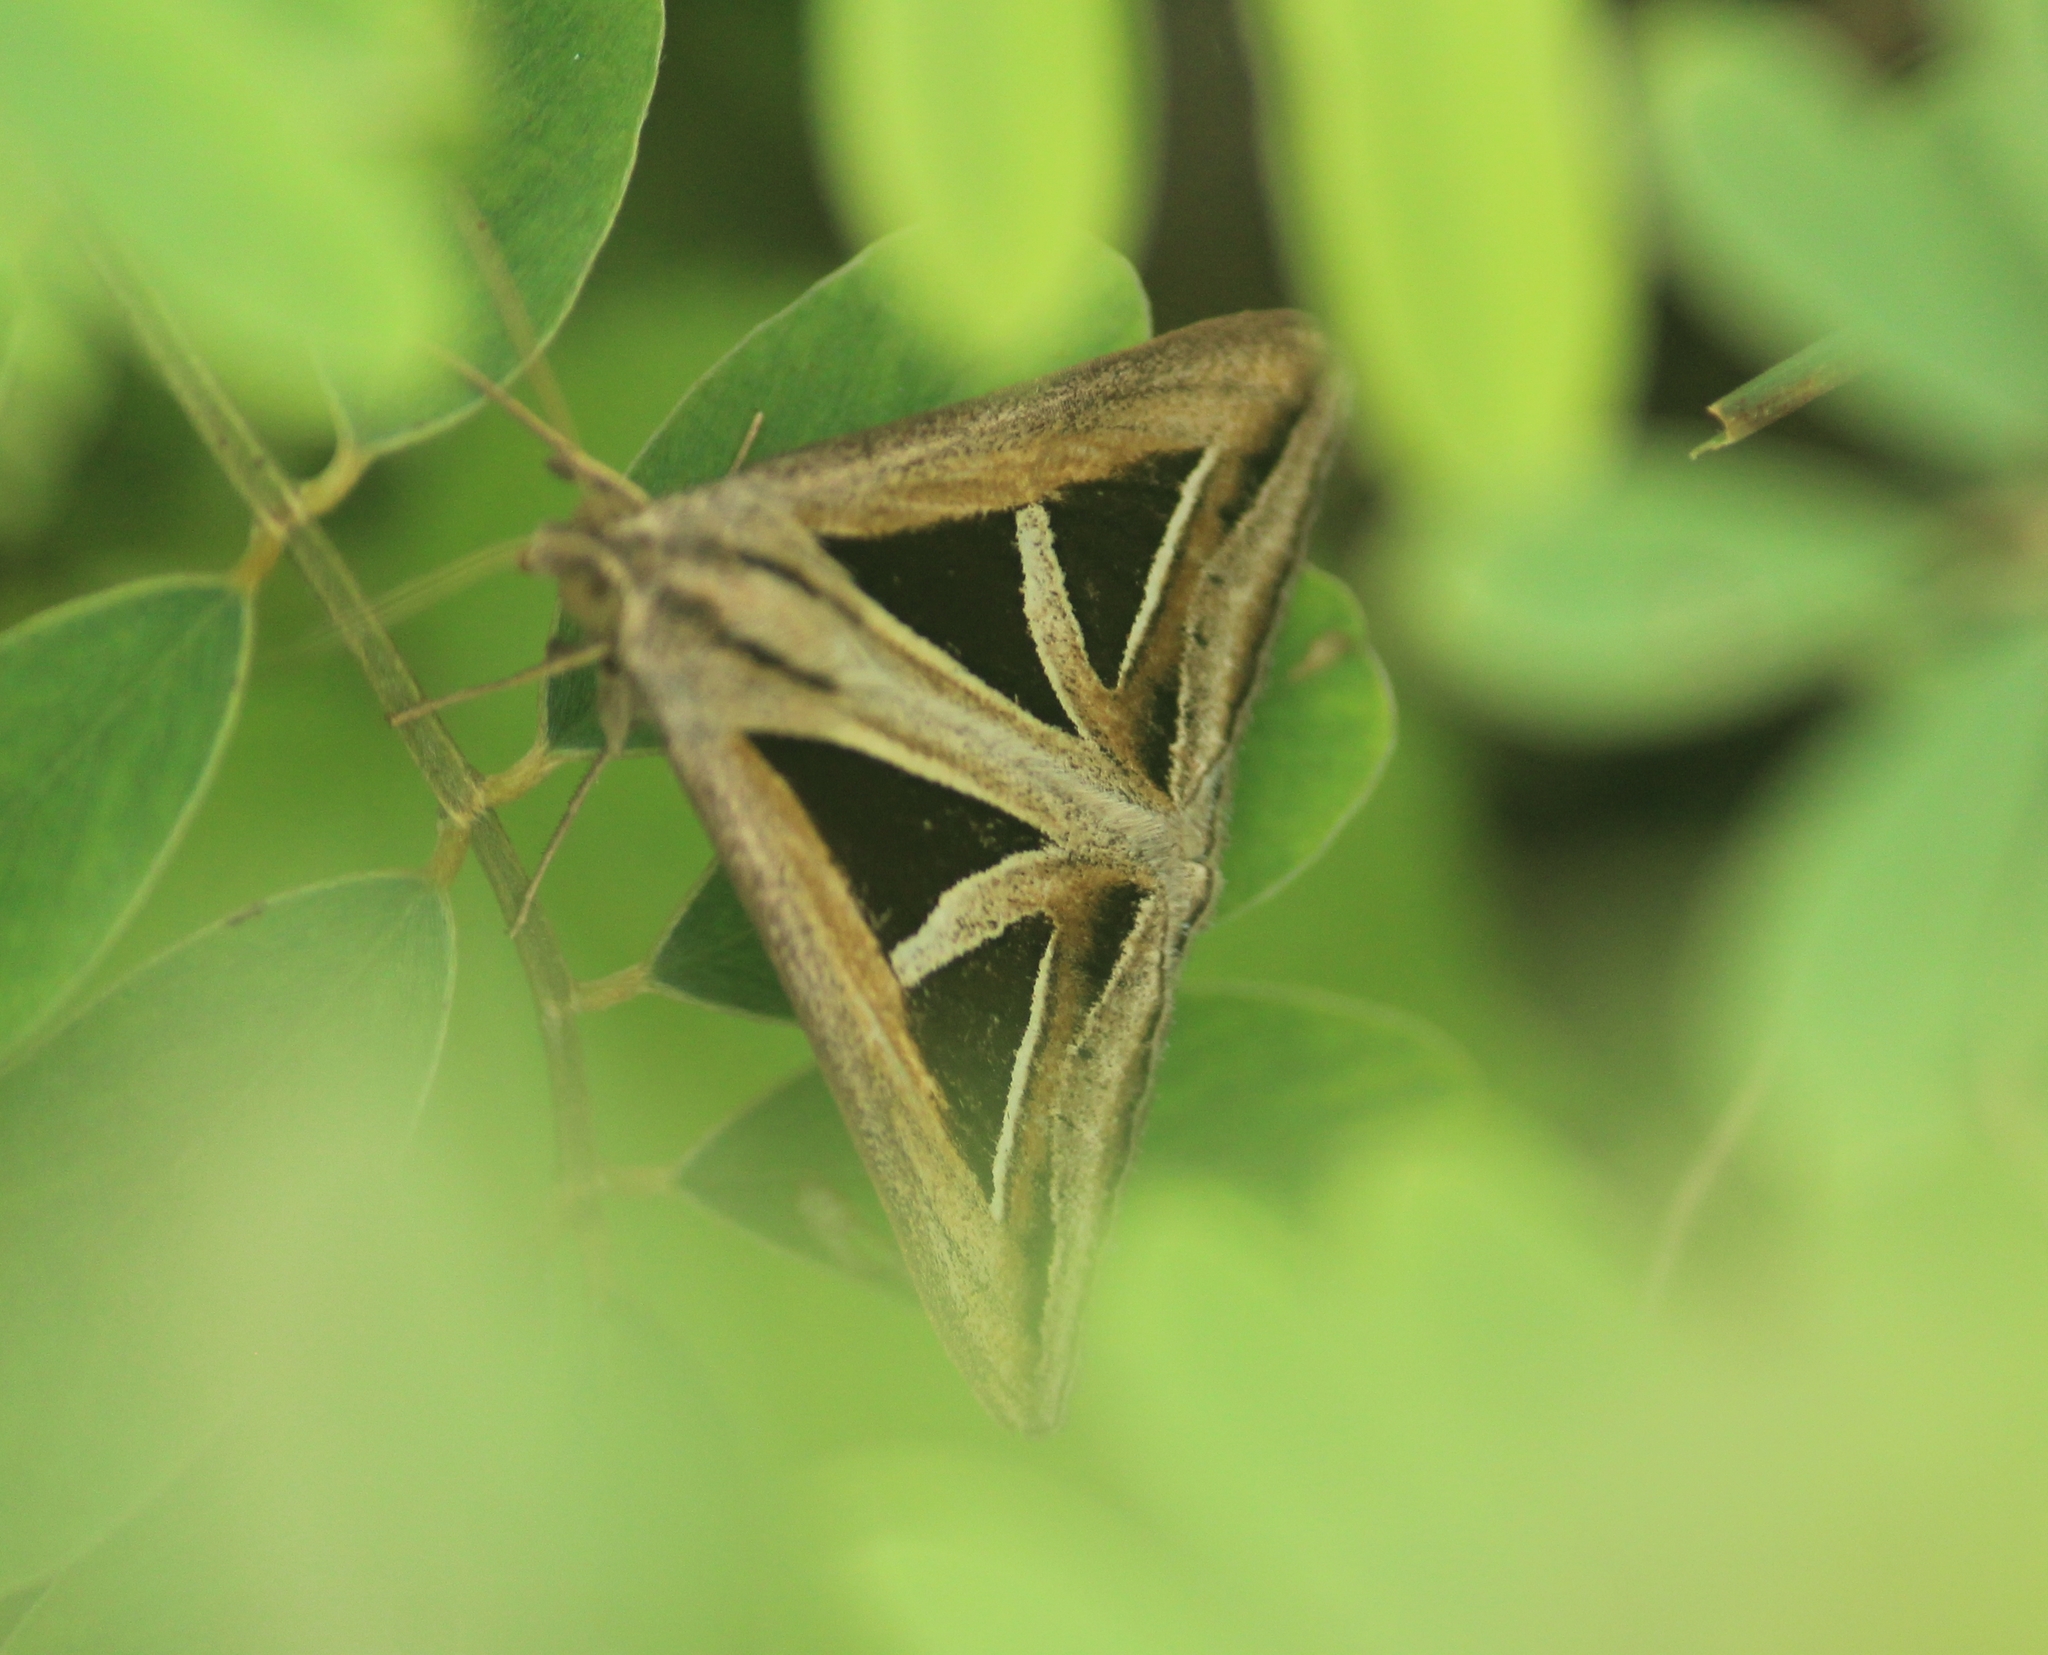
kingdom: Animalia
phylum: Arthropoda
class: Insecta
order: Lepidoptera
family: Erebidae
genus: Trigonodes
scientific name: Trigonodes hyppasia
